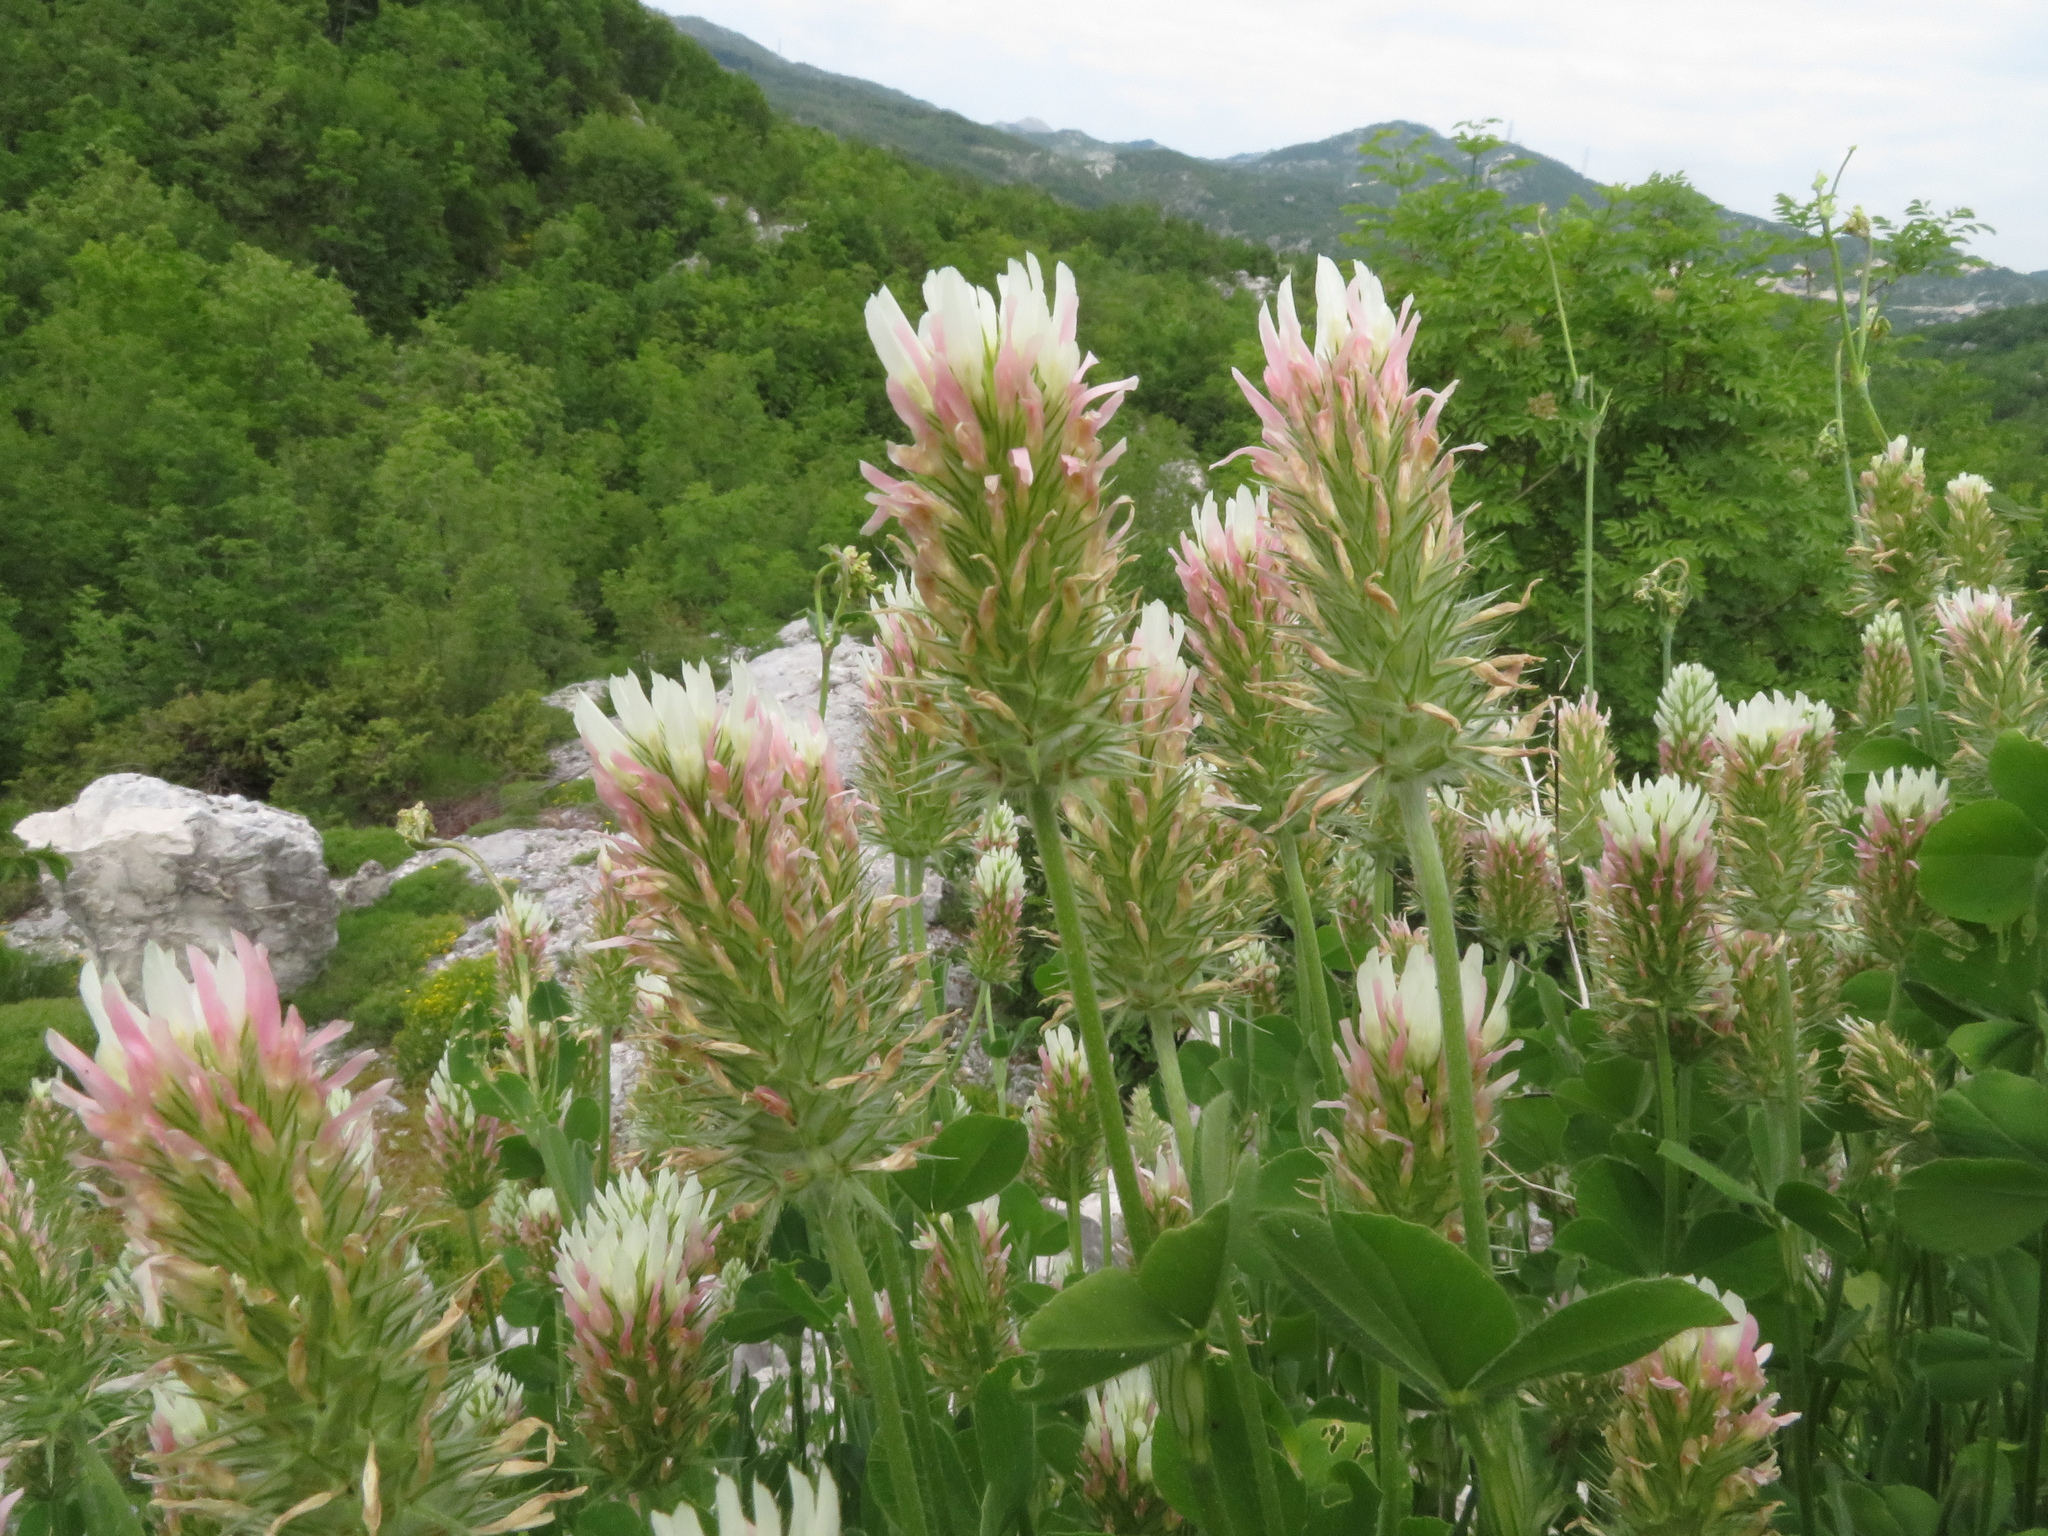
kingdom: Plantae
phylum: Tracheophyta
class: Magnoliopsida
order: Fabales
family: Fabaceae
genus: Trifolium
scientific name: Trifolium incarnatum
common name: Crimson clover
